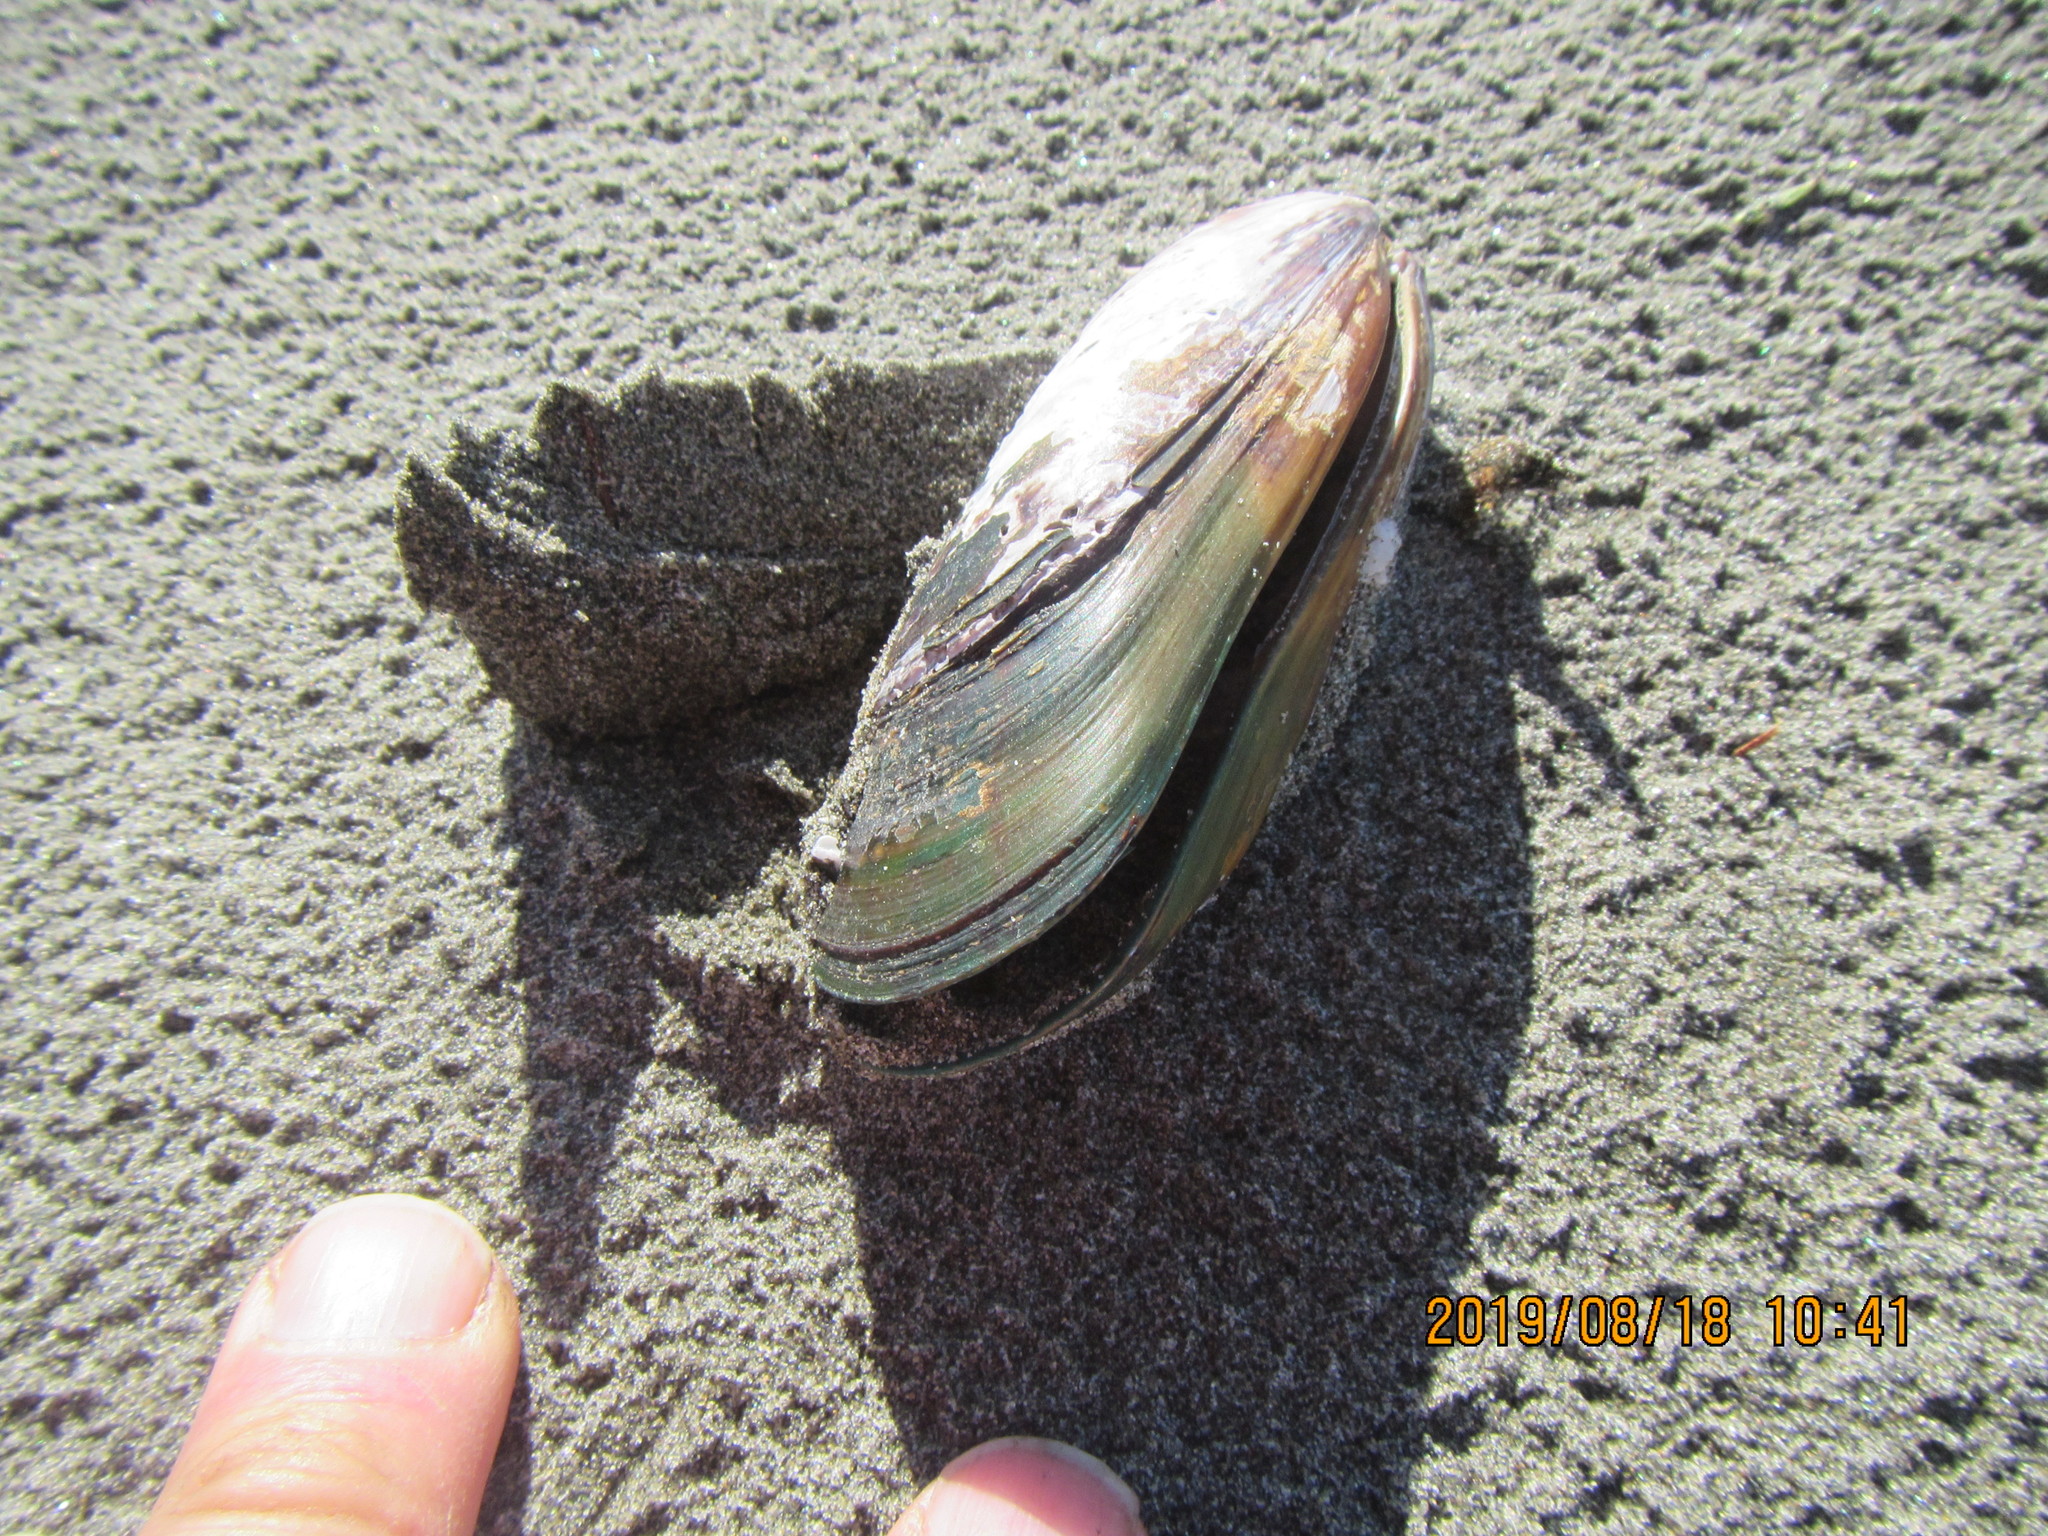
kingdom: Animalia
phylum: Mollusca
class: Bivalvia
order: Mytilida
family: Mytilidae
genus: Perna
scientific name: Perna canaliculus
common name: New zealand greenshelltm
